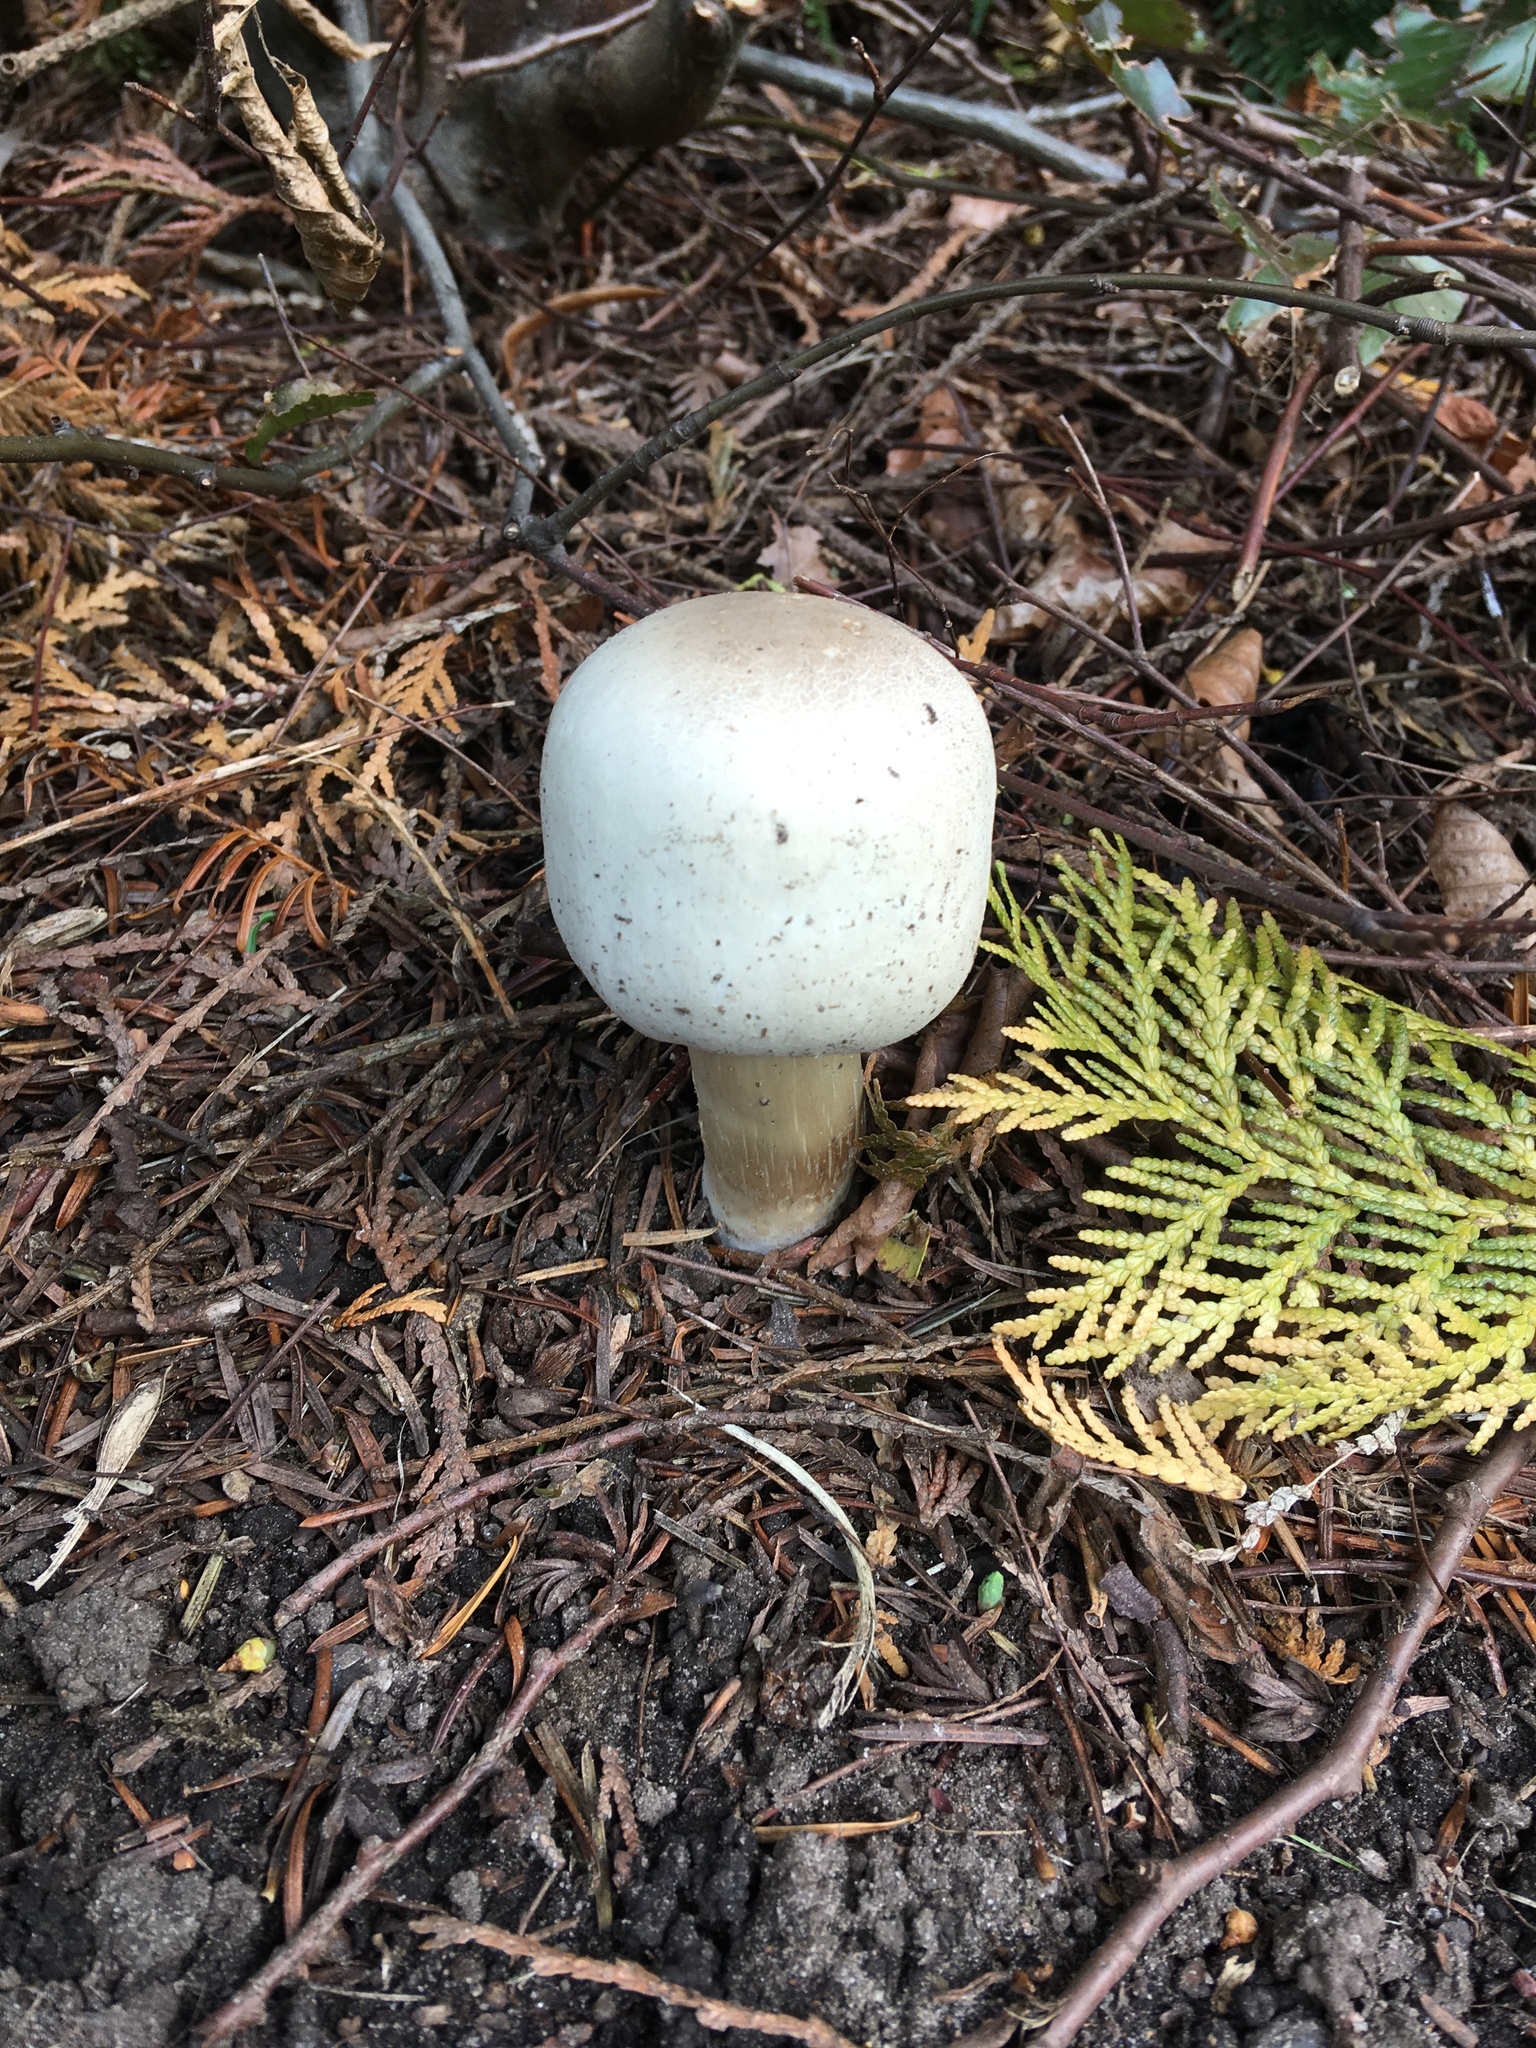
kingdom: Fungi
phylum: Basidiomycota
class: Agaricomycetes
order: Agaricales
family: Agaricaceae
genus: Agaricus
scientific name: Agaricus xanthodermus
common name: Yellow stainer
